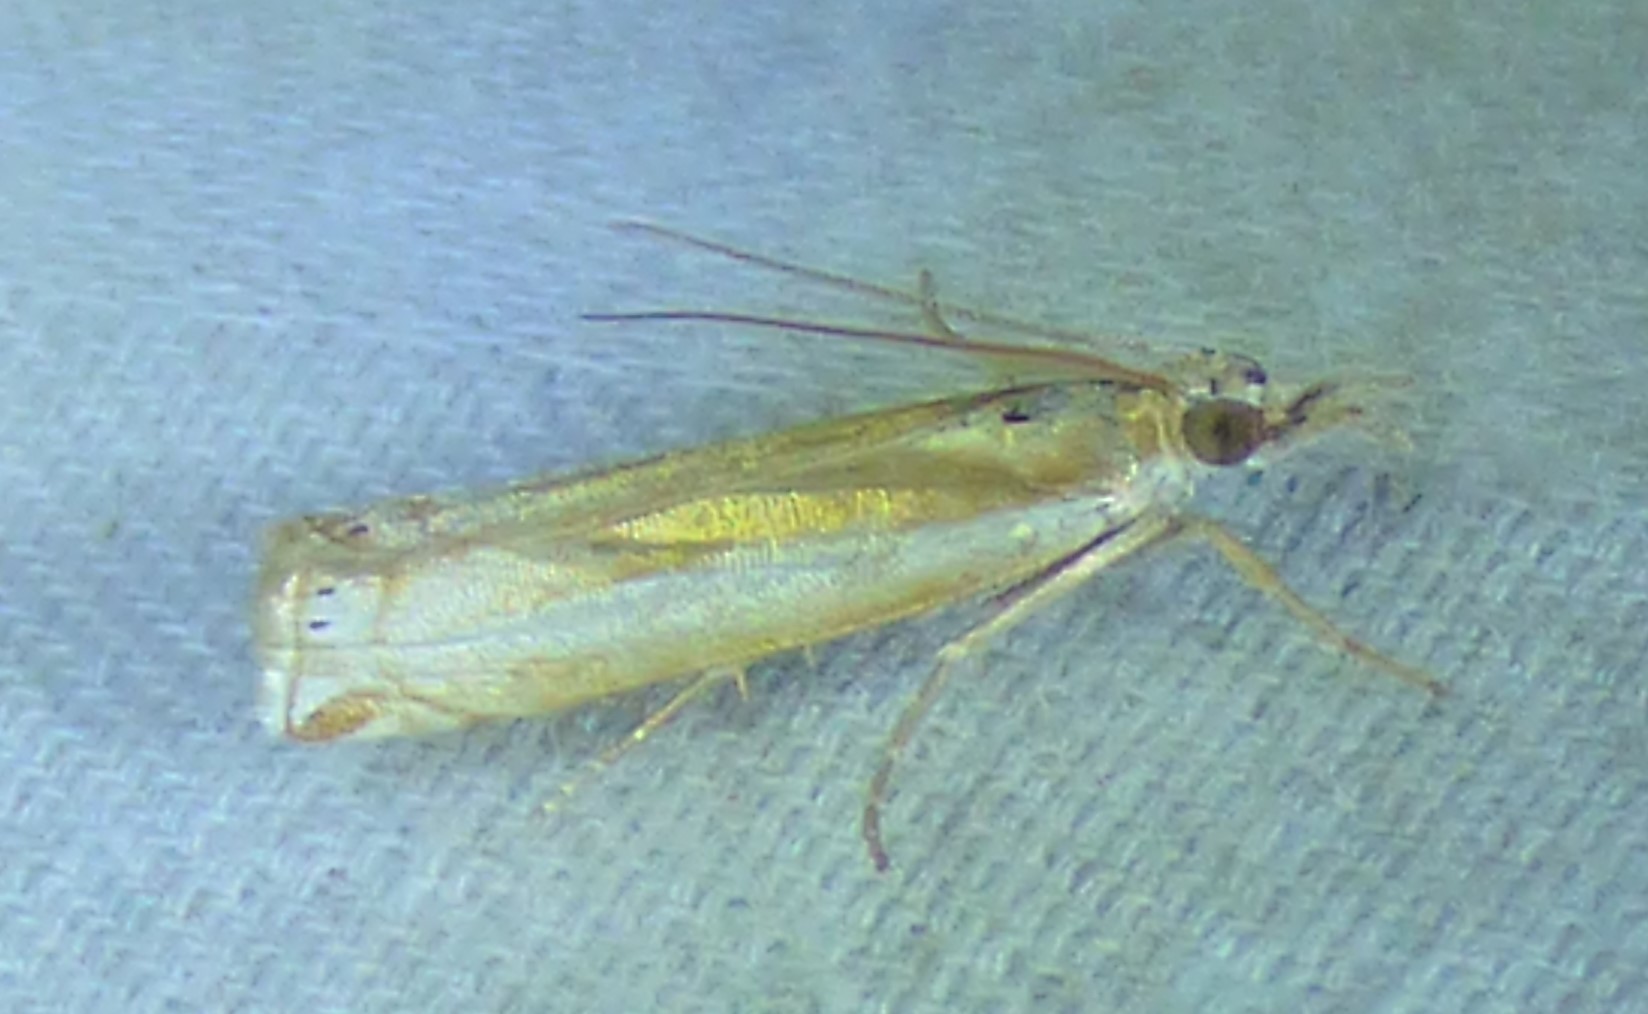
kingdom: Animalia
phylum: Arthropoda
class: Insecta
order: Lepidoptera
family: Crambidae
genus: Crambus
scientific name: Crambus praefectellus
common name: Common grass-veneer
